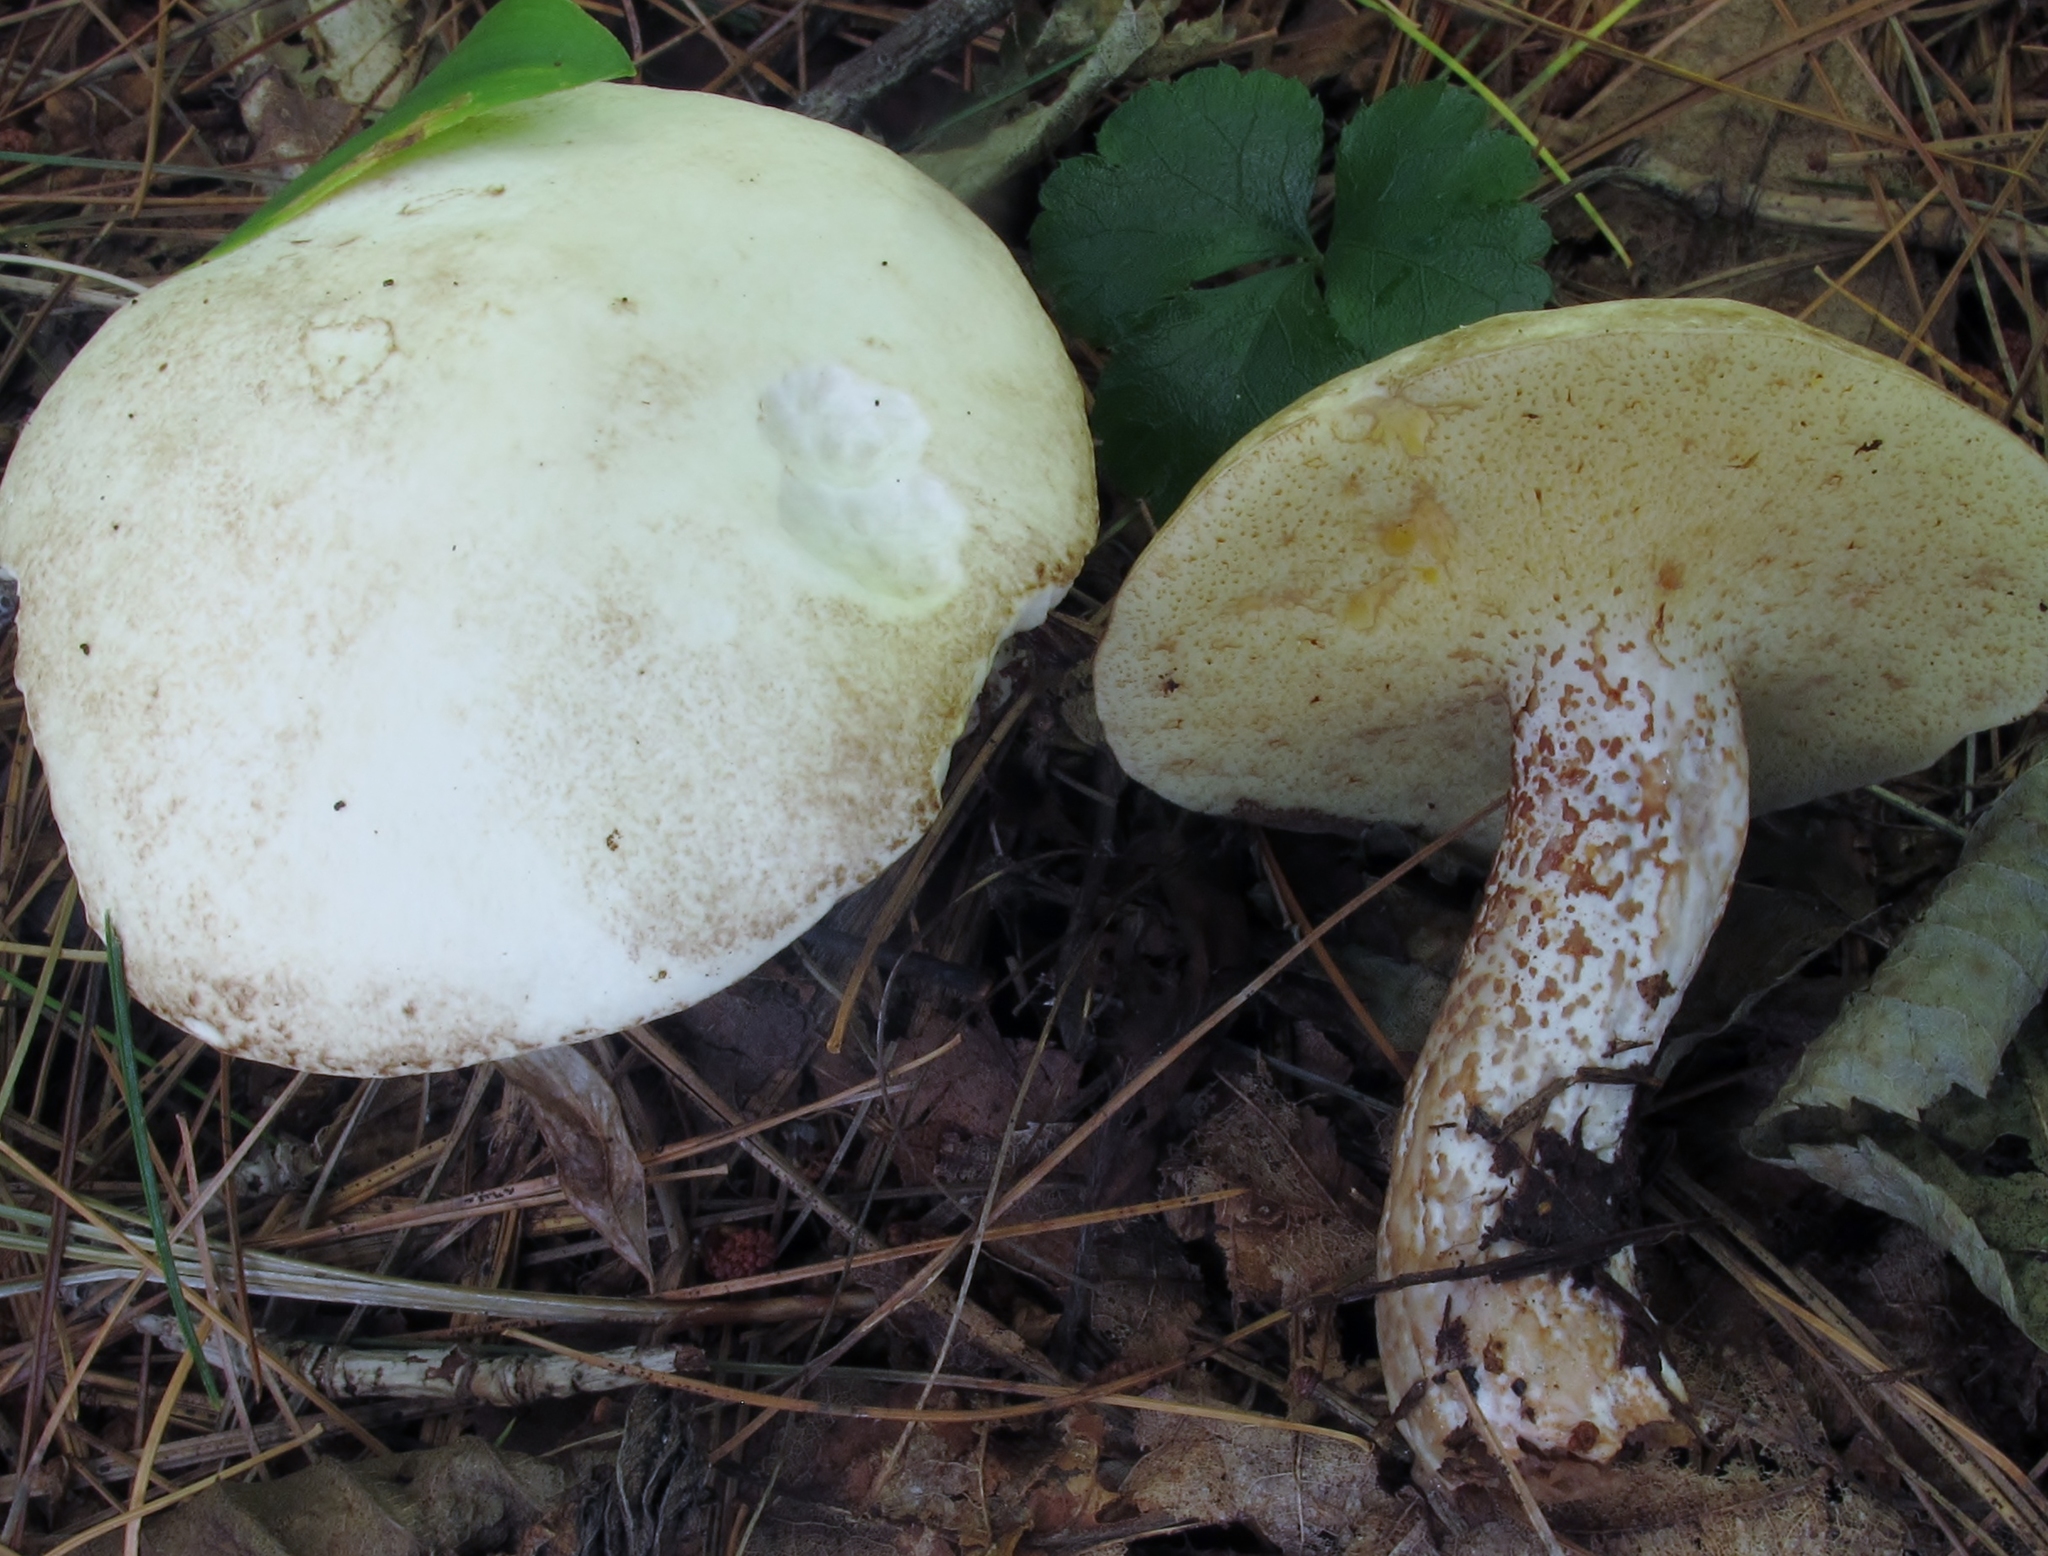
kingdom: Fungi
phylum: Basidiomycota
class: Agaricomycetes
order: Boletales
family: Suillaceae
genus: Suillus
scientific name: Suillus placidus
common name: Slippery white bolete
